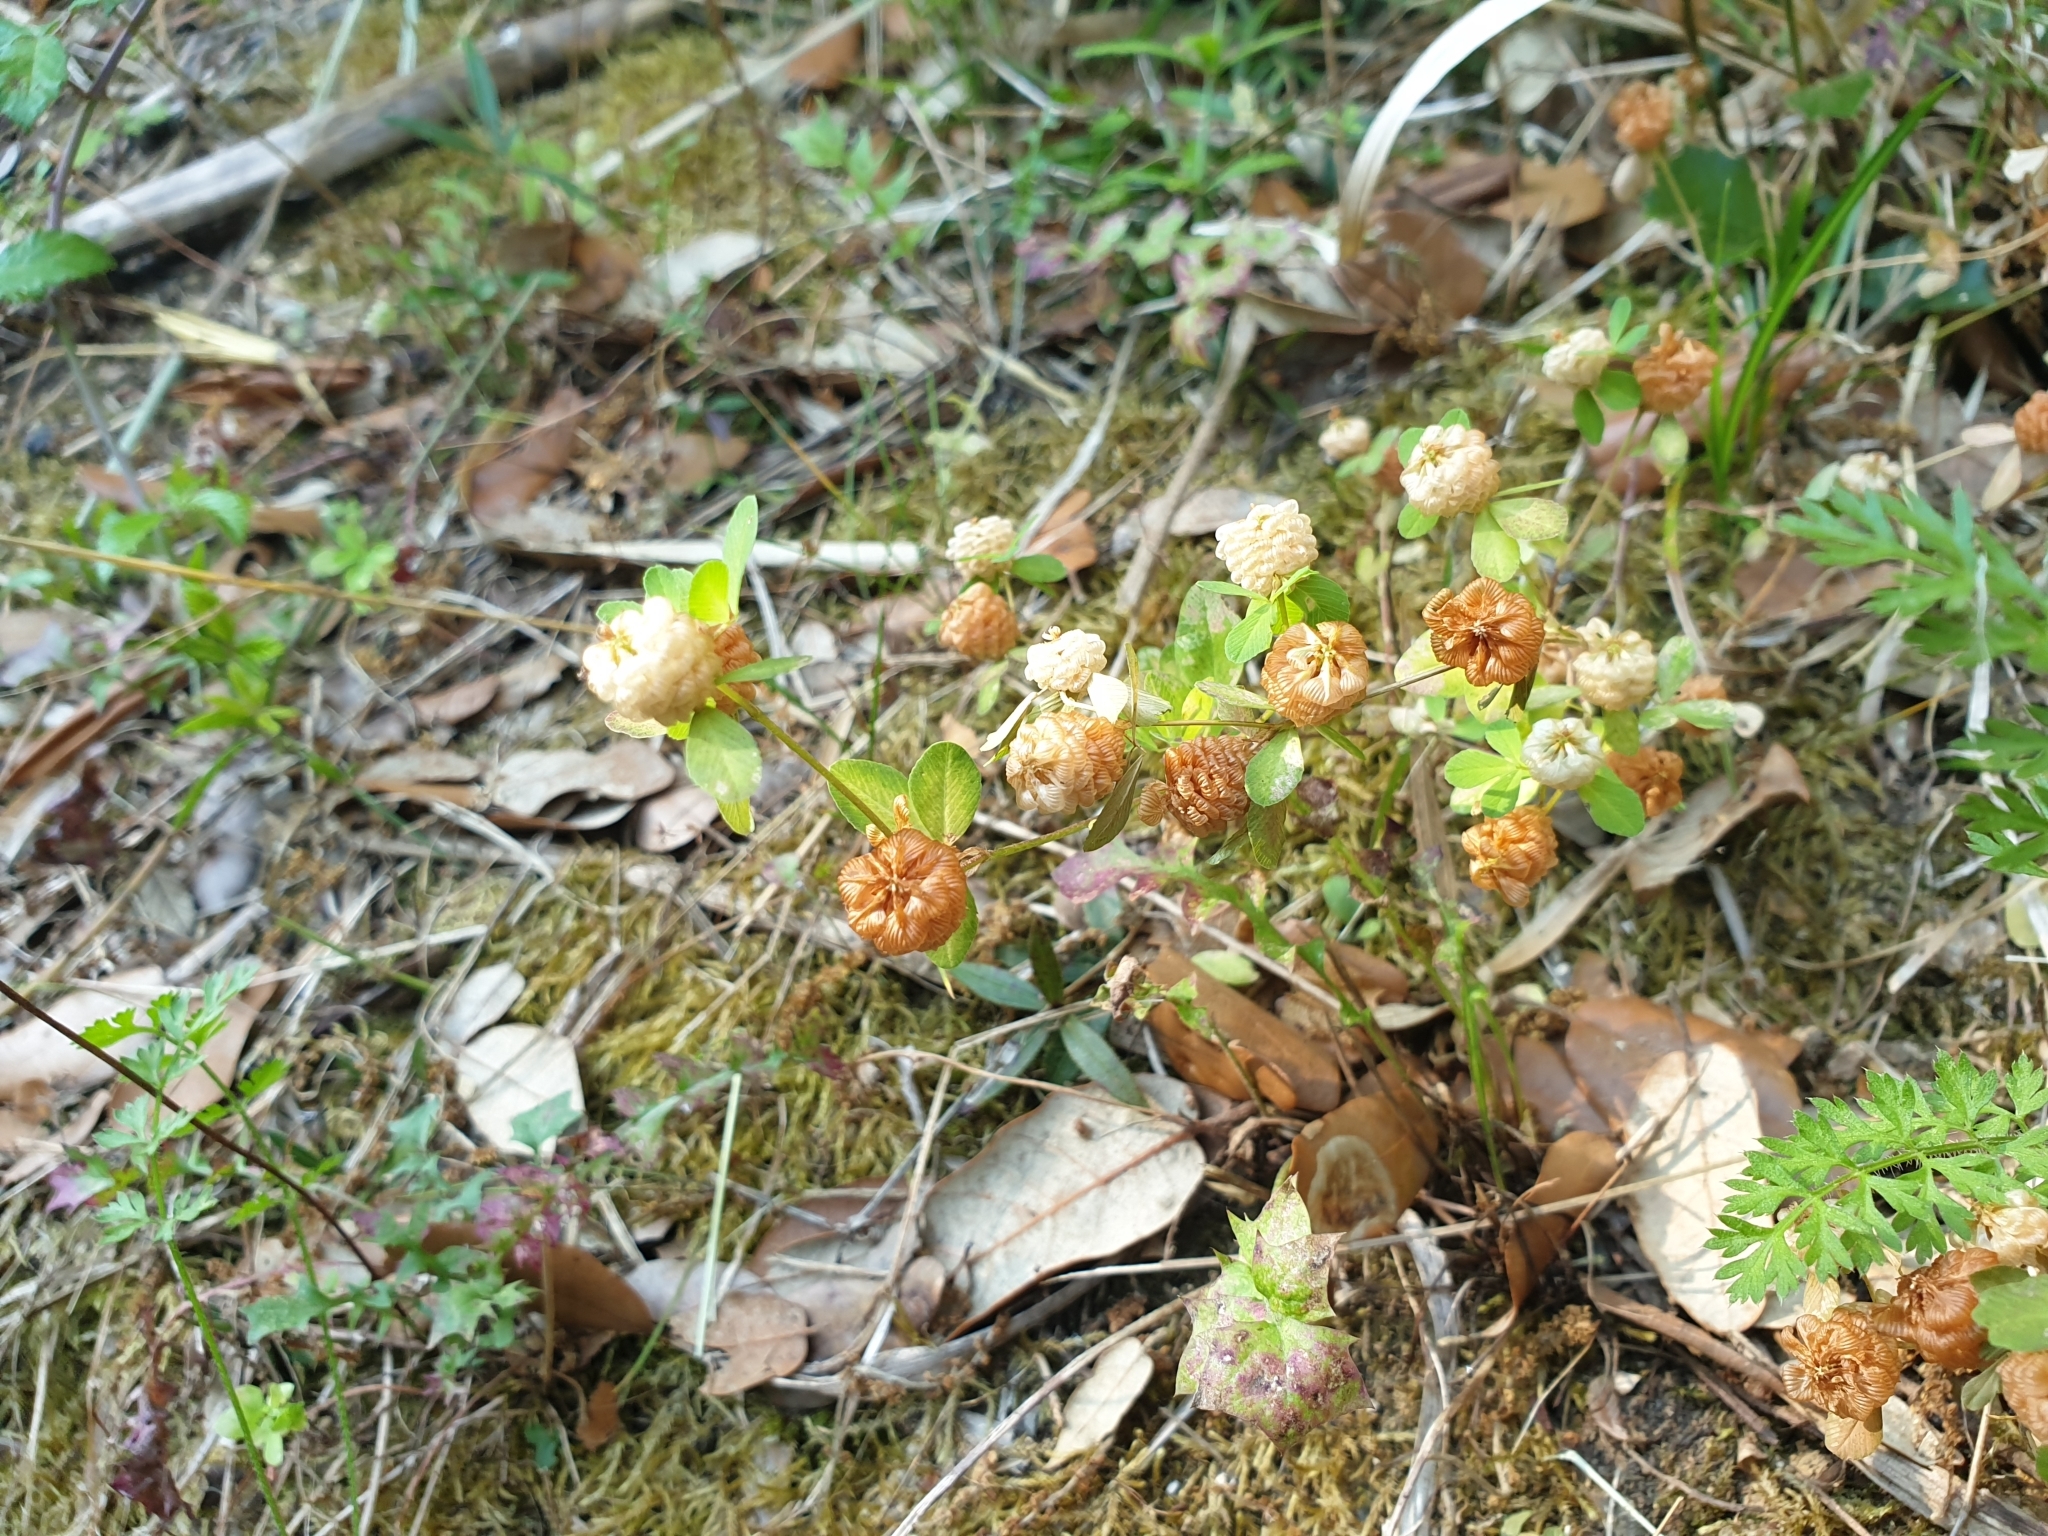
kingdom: Plantae
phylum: Tracheophyta
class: Magnoliopsida
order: Fabales
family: Fabaceae
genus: Trifolium
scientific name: Trifolium campestre
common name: Field clover
